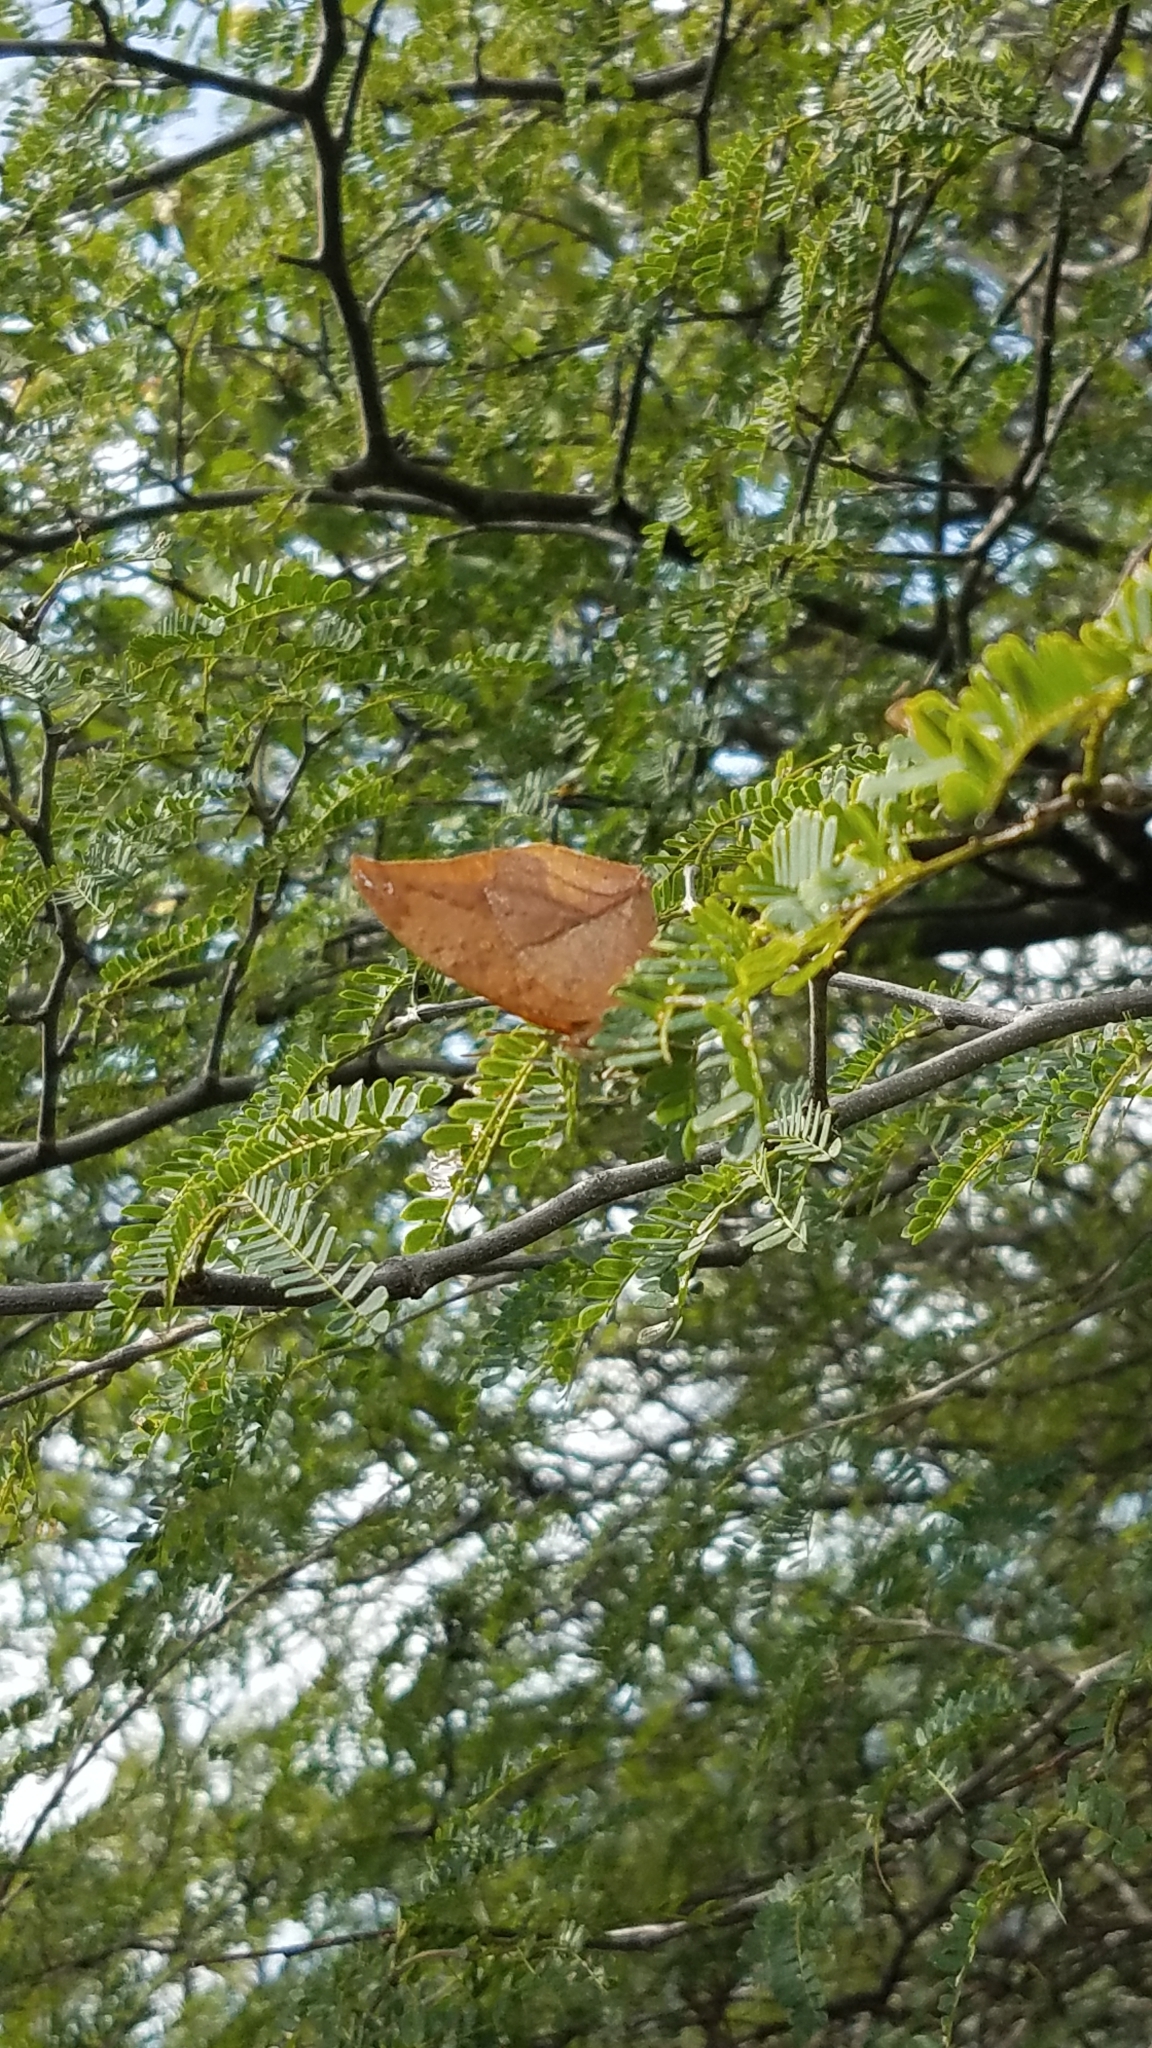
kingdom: Animalia
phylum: Arthropoda
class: Insecta
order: Lepidoptera
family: Nymphalidae
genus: Zaretis
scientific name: Zaretis itys
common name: Skeletonized leafwing
